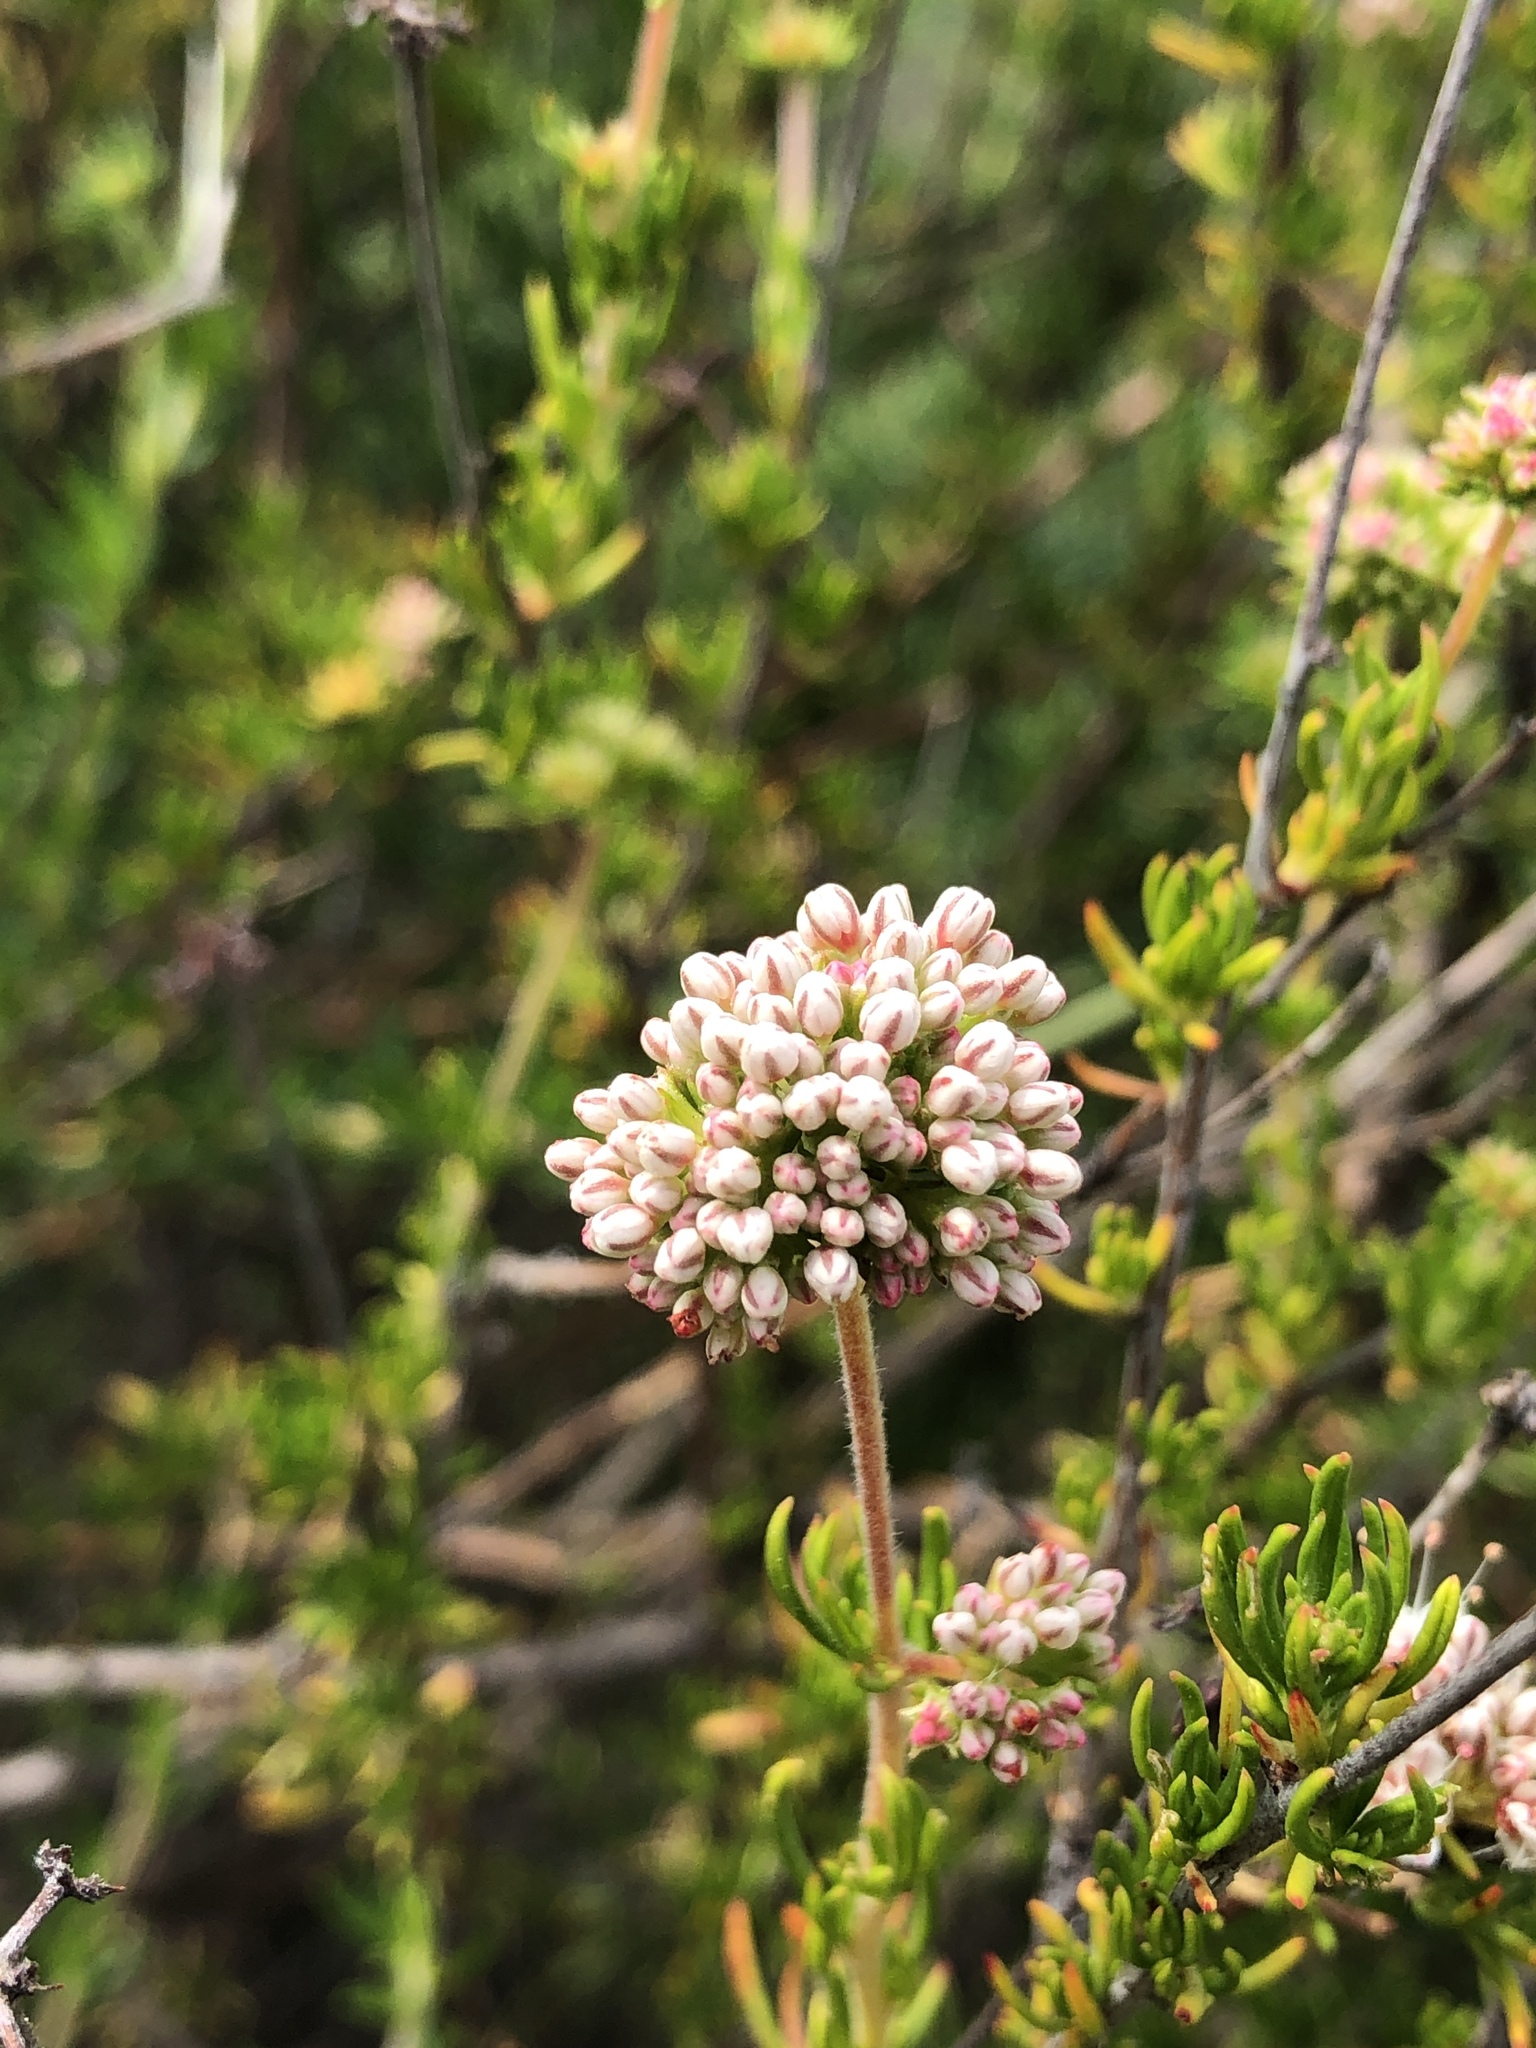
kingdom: Plantae
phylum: Tracheophyta
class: Magnoliopsida
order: Caryophyllales
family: Polygonaceae
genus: Eriogonum
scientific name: Eriogonum fasciculatum
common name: California wild buckwheat
